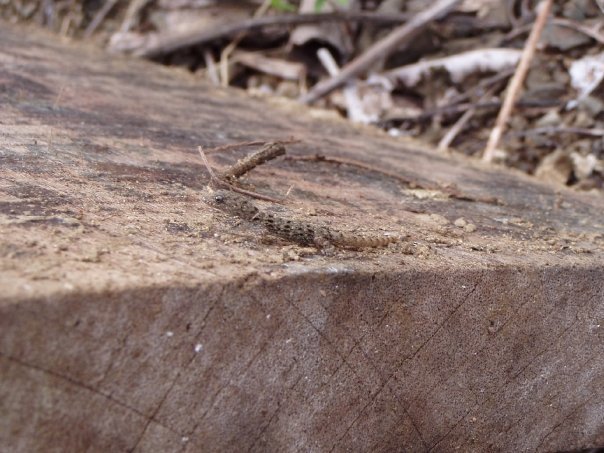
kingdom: Animalia
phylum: Chordata
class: Squamata
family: Sphaerodactylidae
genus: Gonatodes
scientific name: Gonatodes albogularis
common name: Yellow-headed gecko
